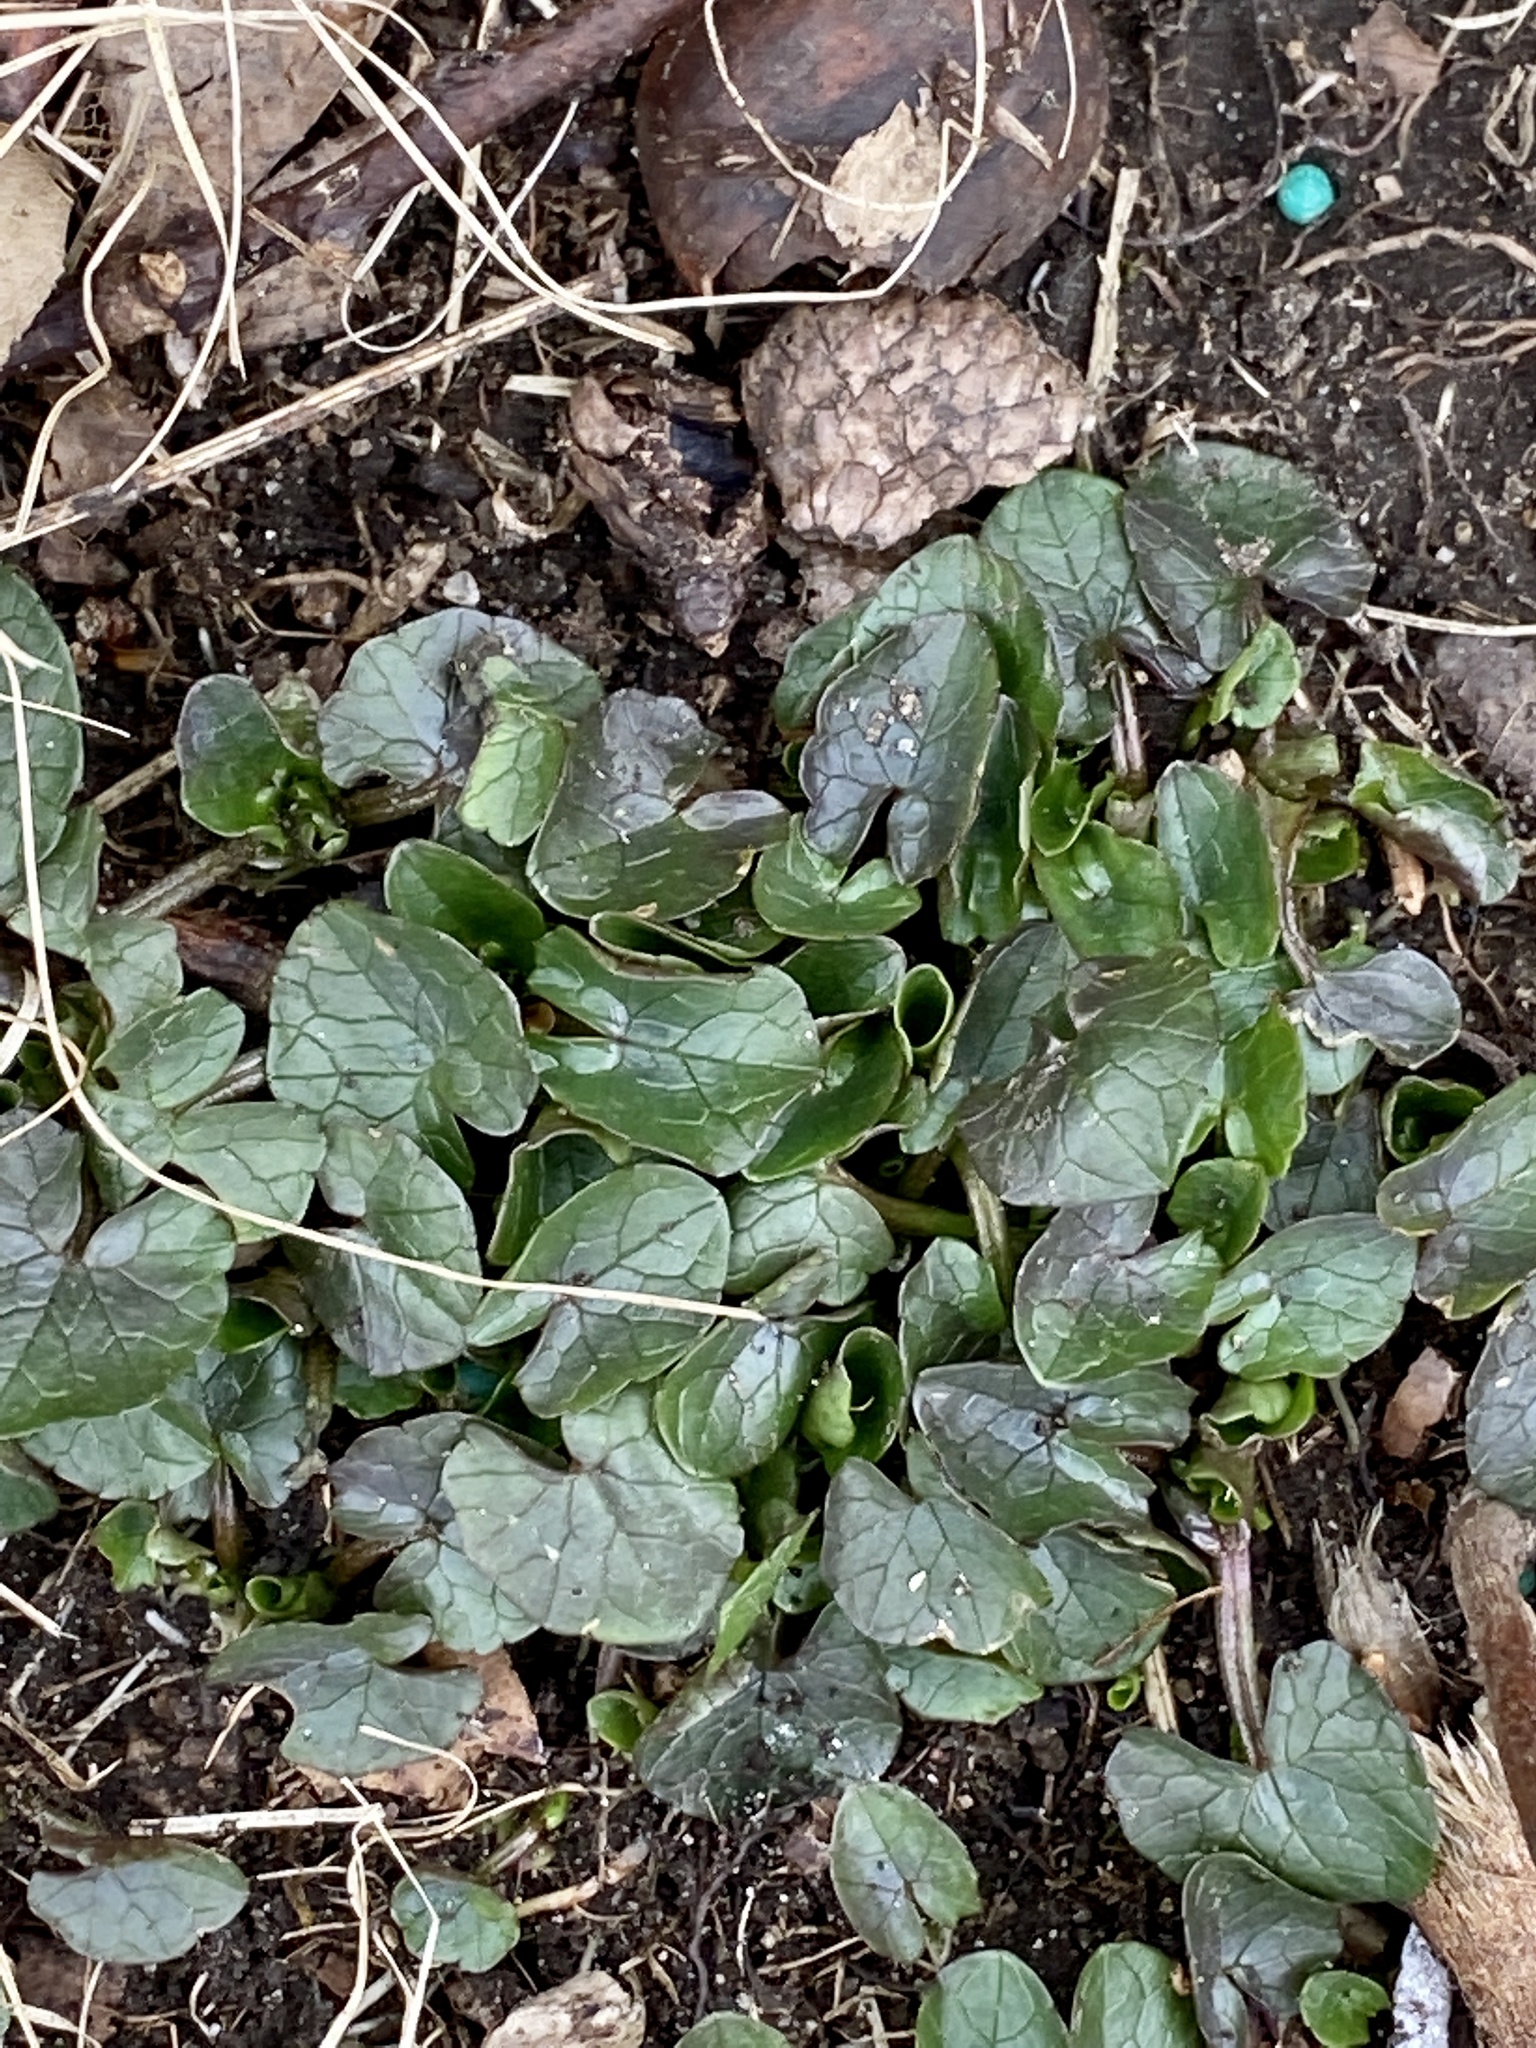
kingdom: Plantae
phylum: Tracheophyta
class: Magnoliopsida
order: Ranunculales
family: Ranunculaceae
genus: Ficaria
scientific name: Ficaria verna
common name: Lesser celandine
